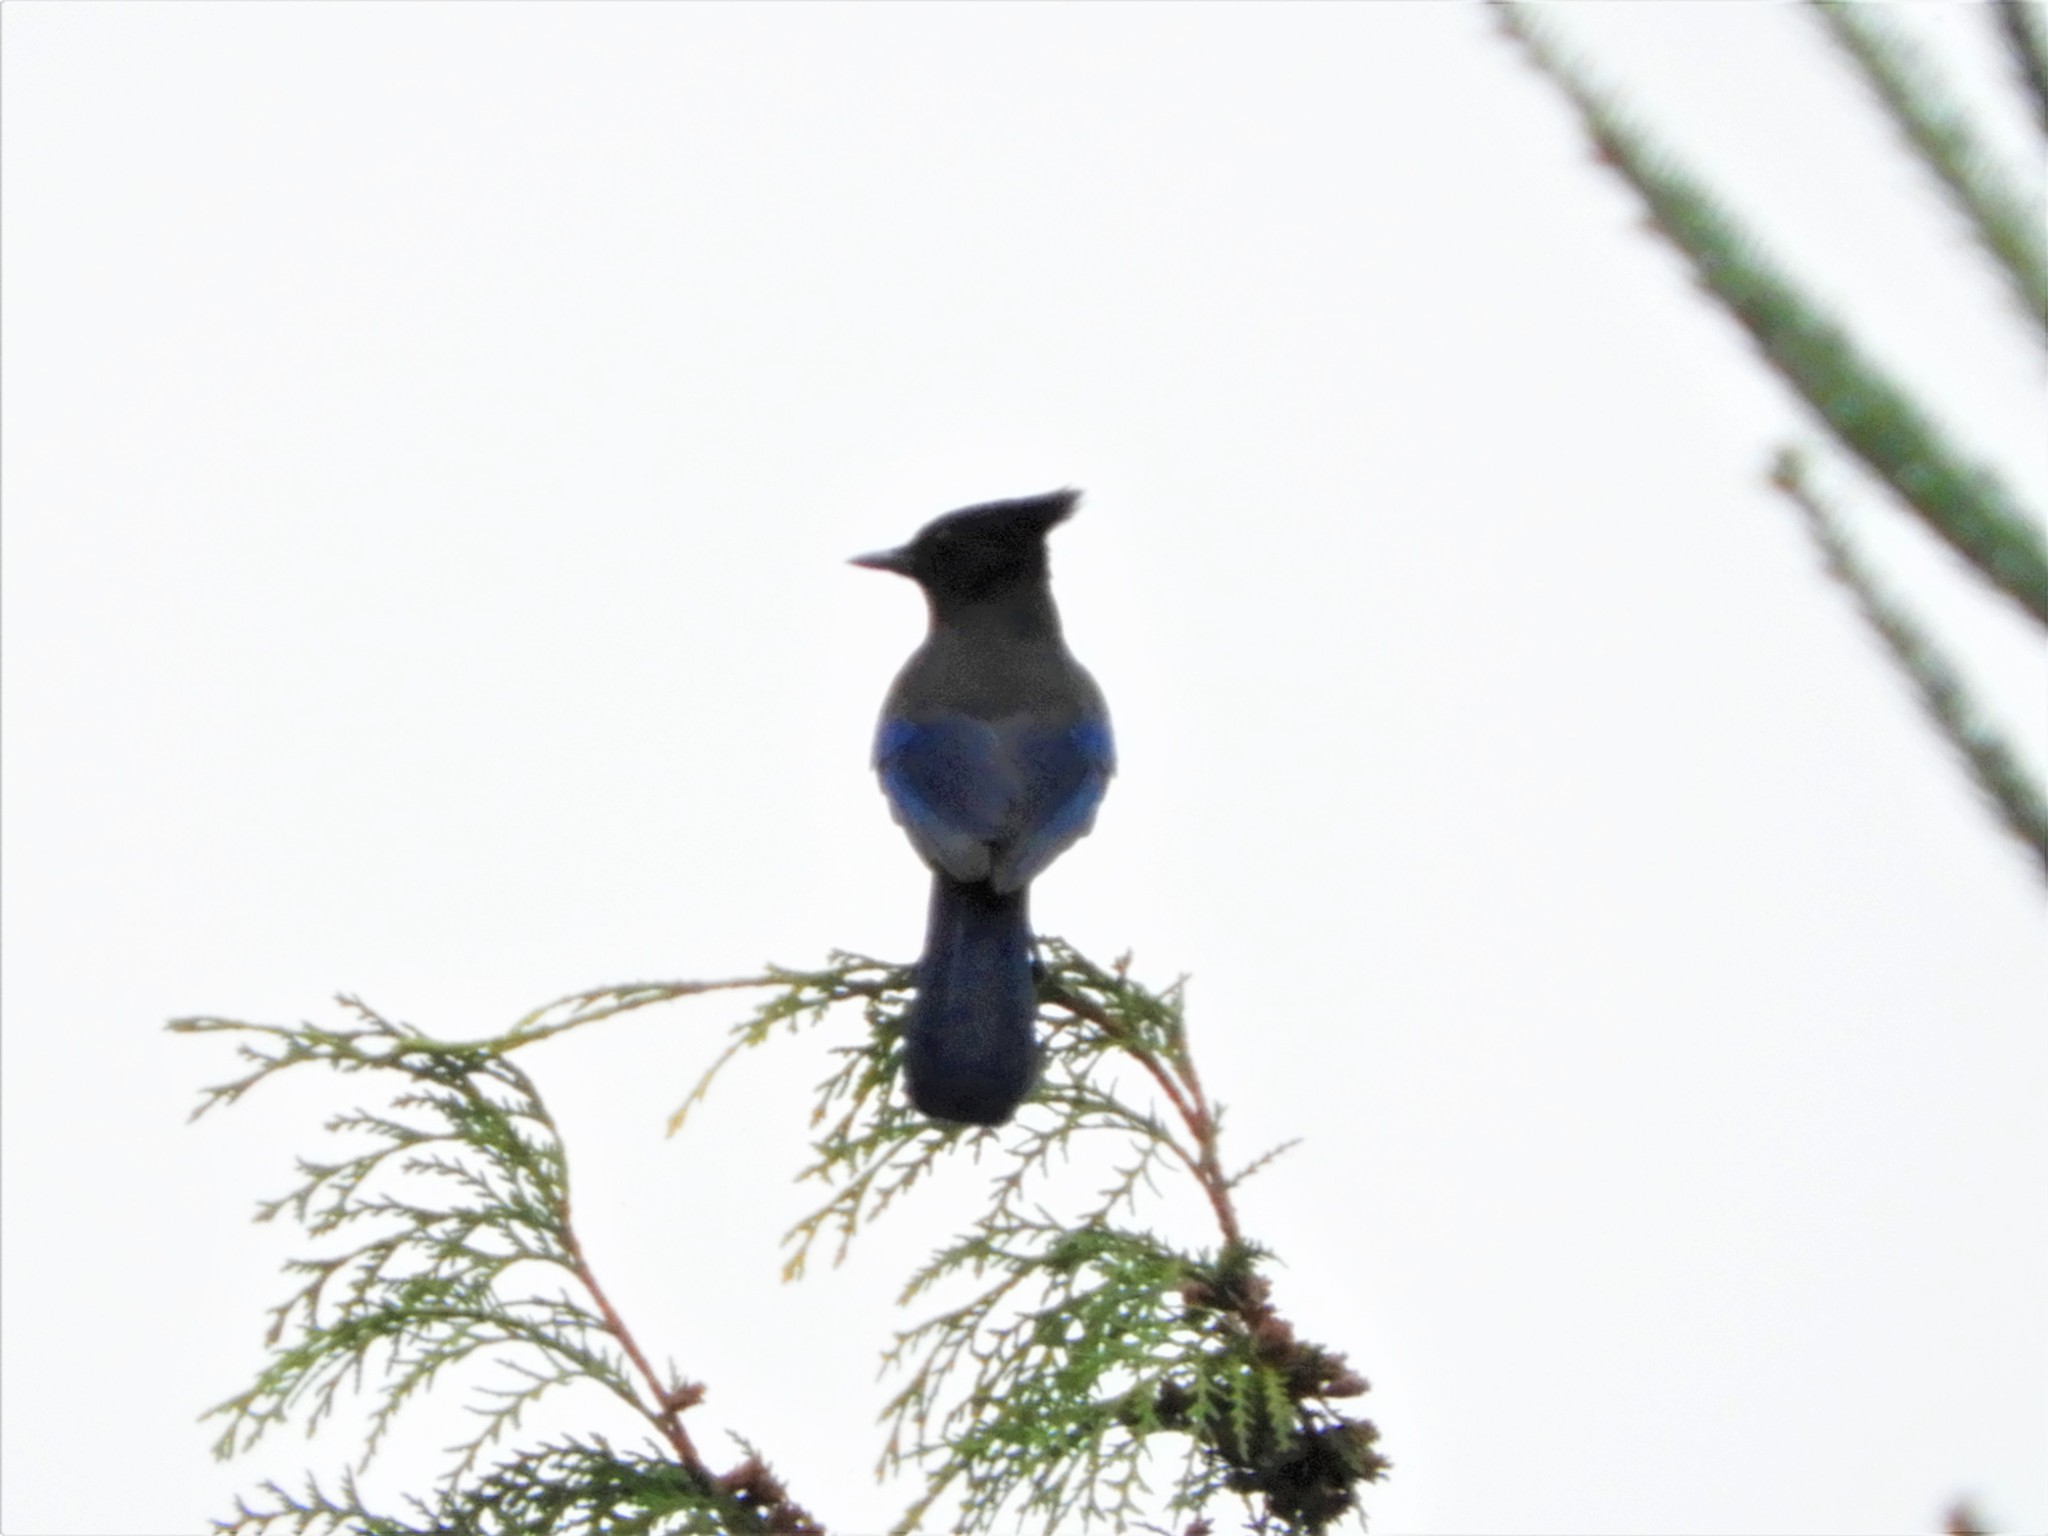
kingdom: Animalia
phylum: Chordata
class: Aves
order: Passeriformes
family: Corvidae
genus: Cyanocitta
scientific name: Cyanocitta stelleri
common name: Steller's jay
